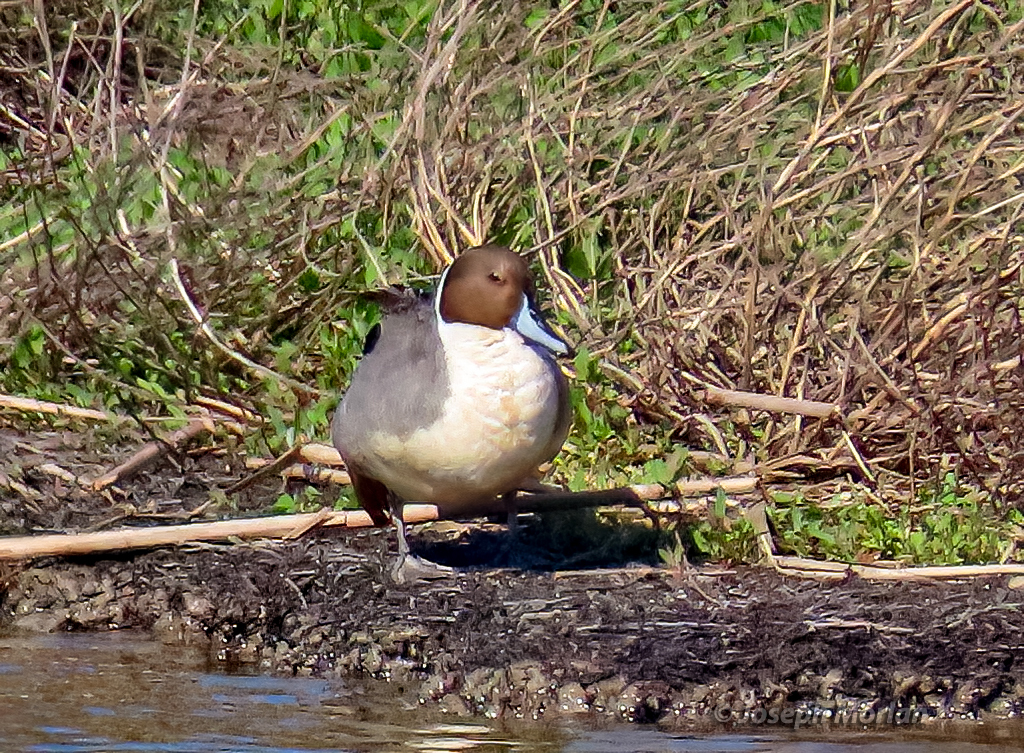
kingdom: Animalia
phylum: Chordata
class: Aves
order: Anseriformes
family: Anatidae
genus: Anas
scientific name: Anas acuta
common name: Northern pintail
